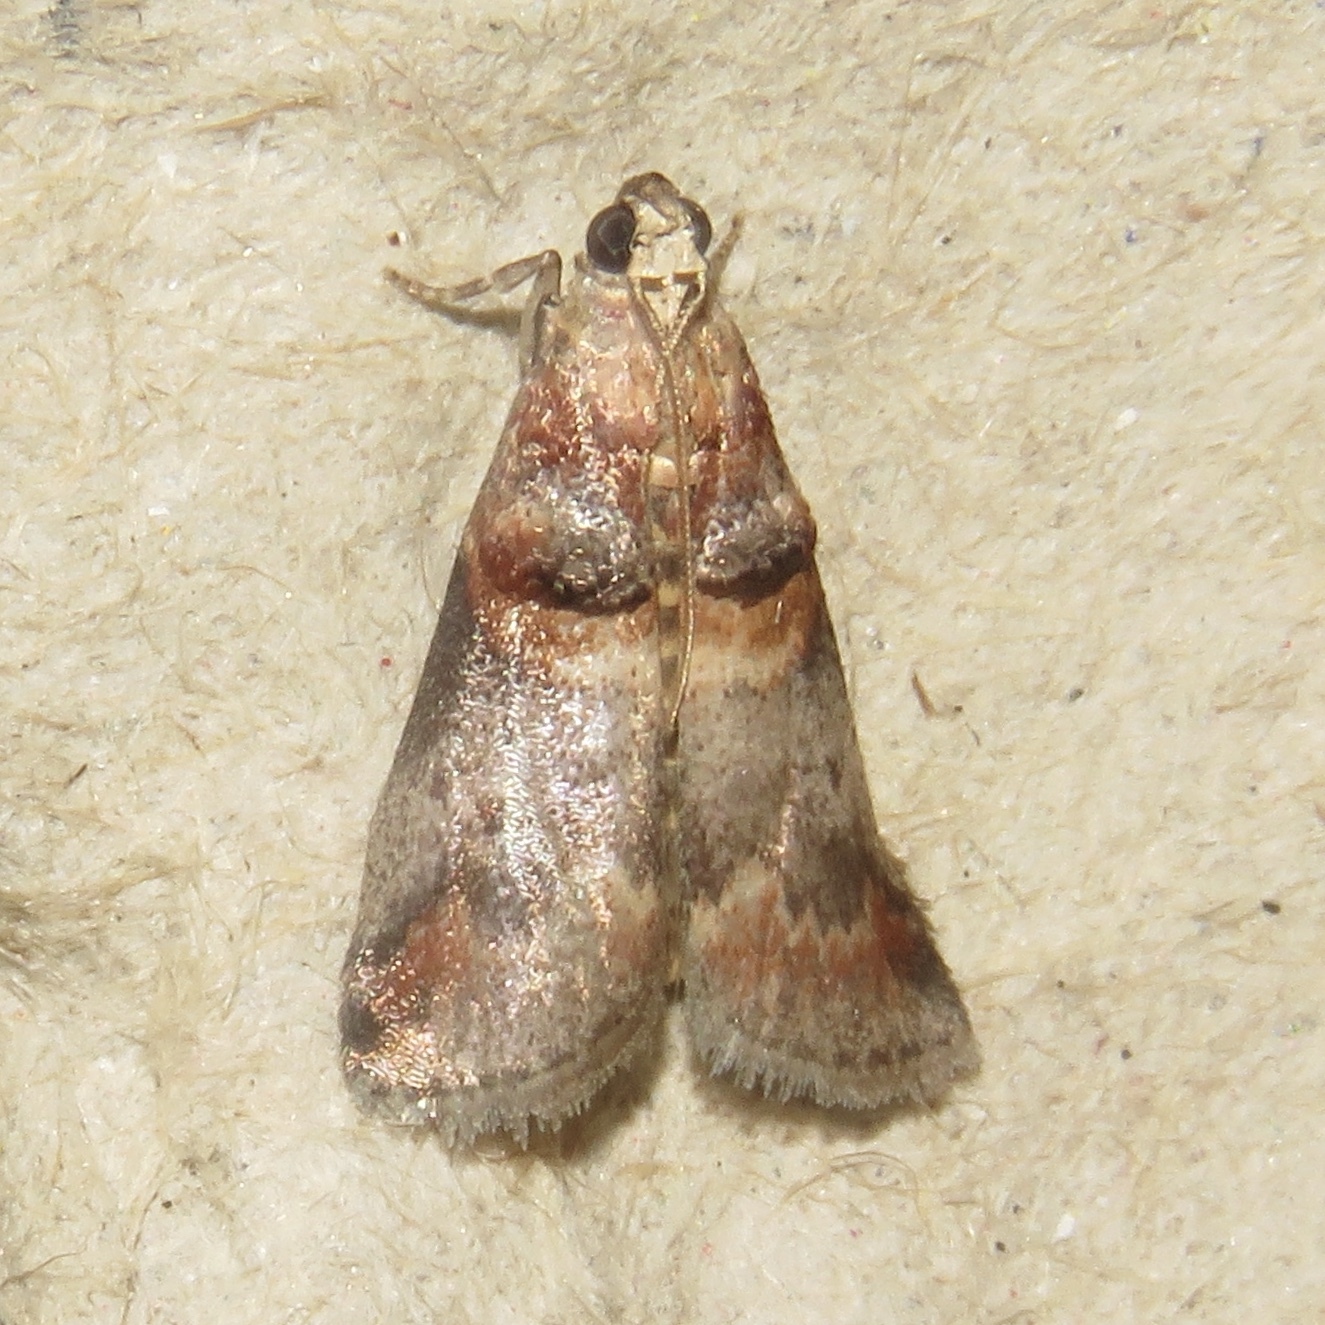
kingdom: Animalia
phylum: Arthropoda
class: Insecta
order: Lepidoptera
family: Pyralidae
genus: Acrobasis
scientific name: Acrobasis angusella
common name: Hickory leafstem borer moth
